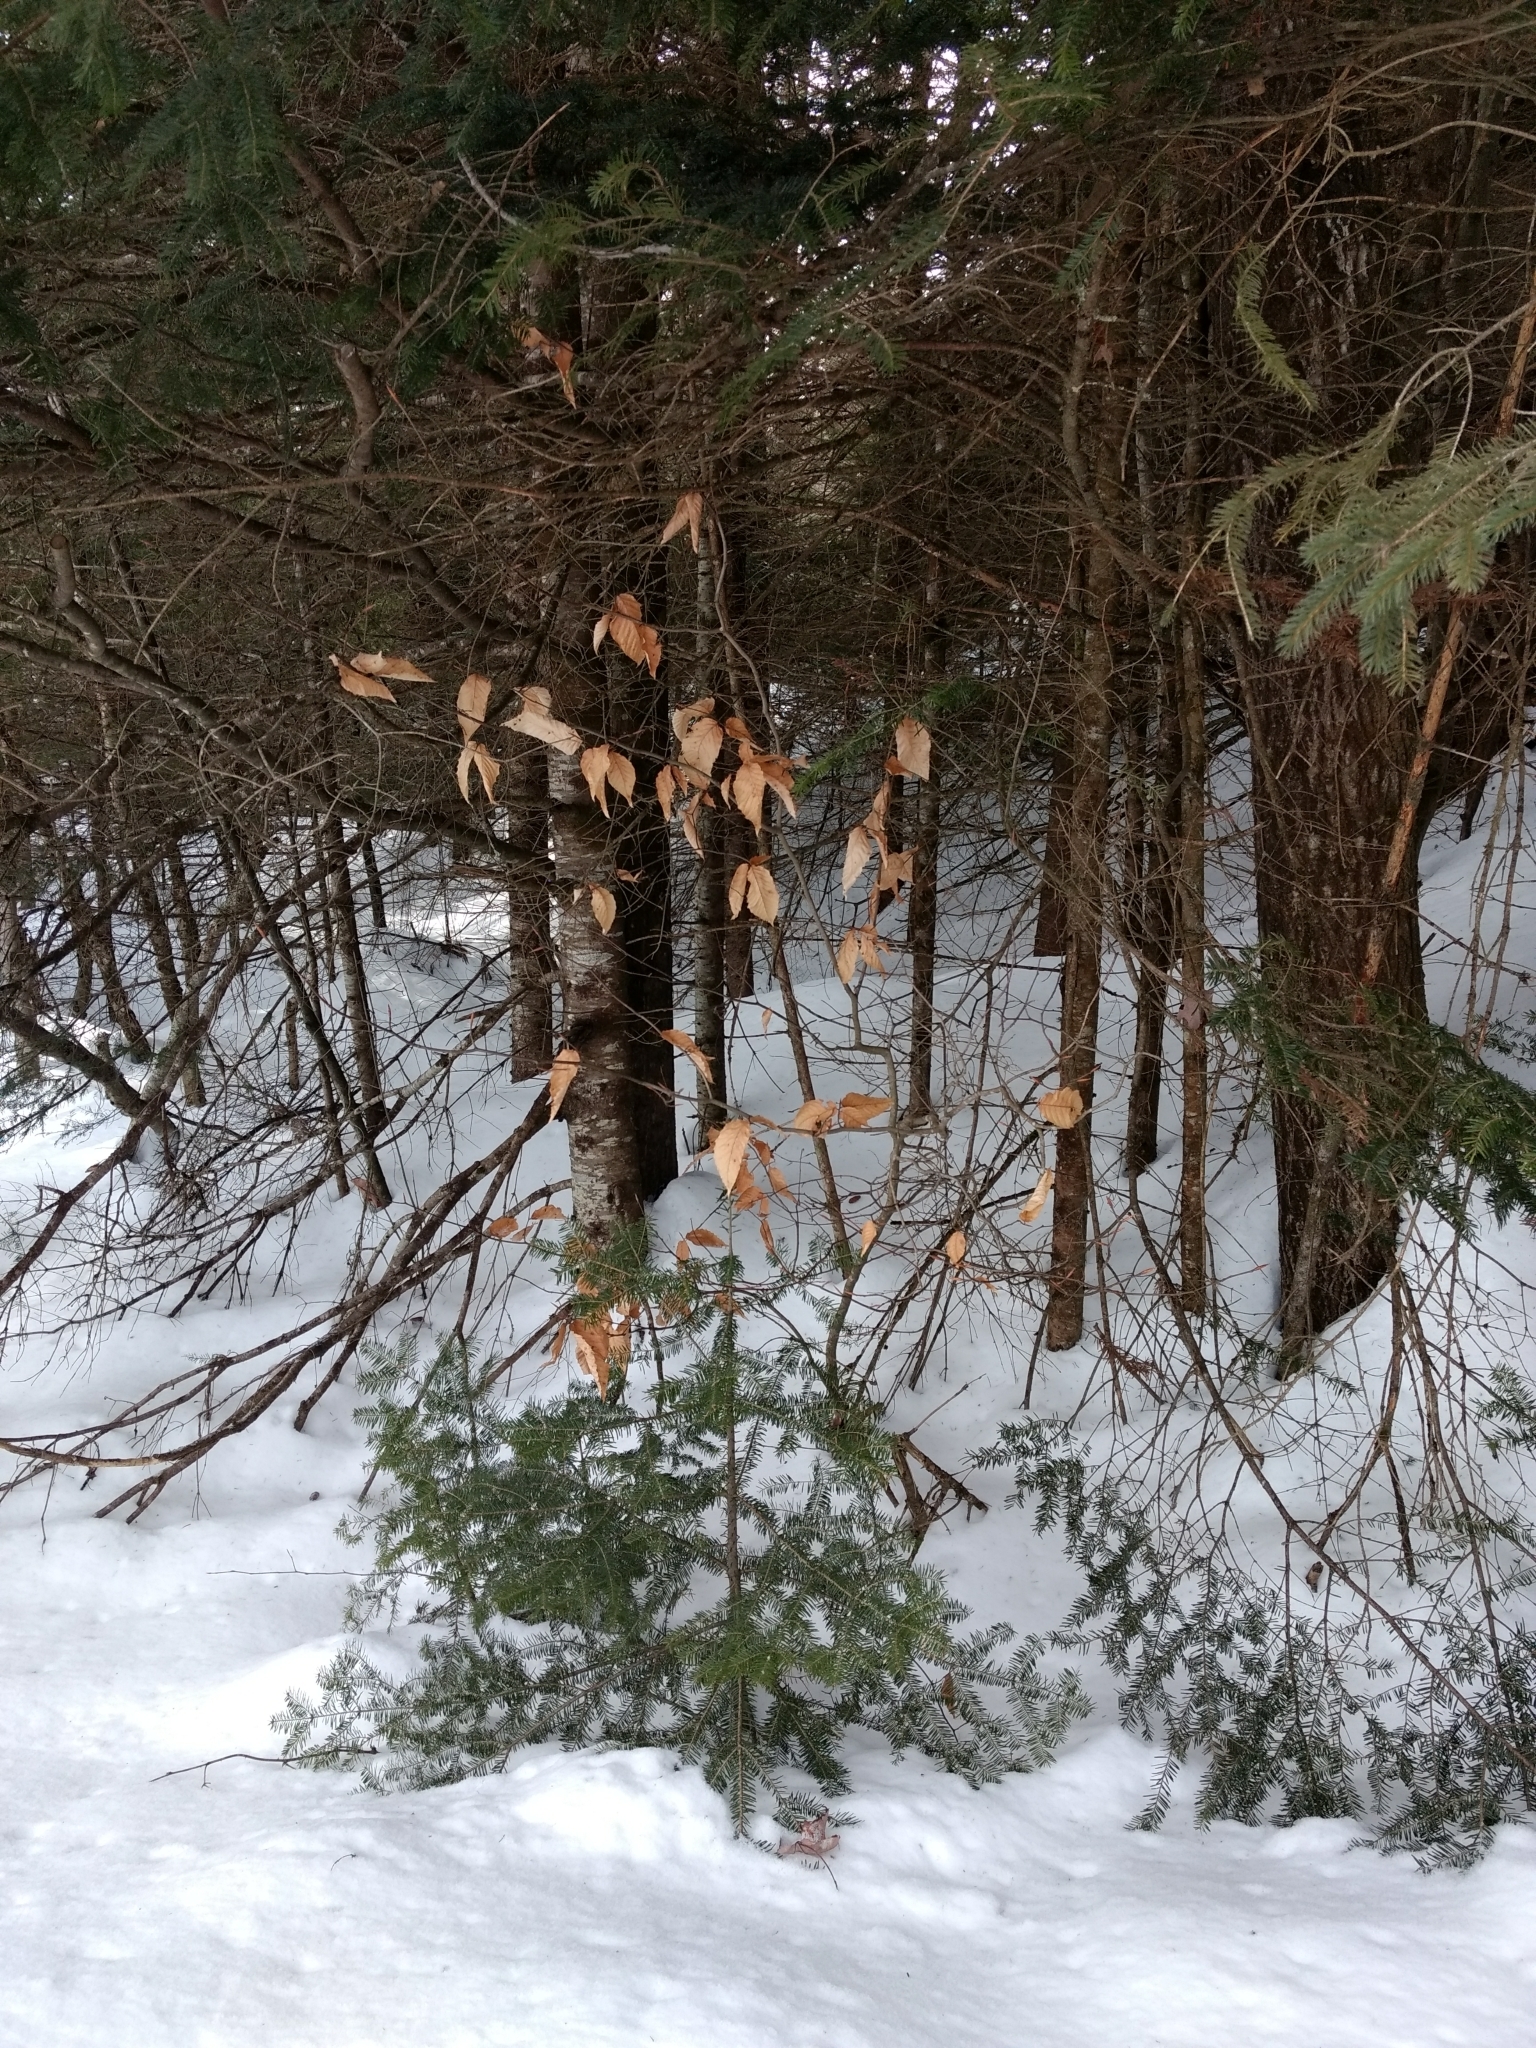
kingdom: Plantae
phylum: Tracheophyta
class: Magnoliopsida
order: Fagales
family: Fagaceae
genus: Fagus
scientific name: Fagus grandifolia
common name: American beech
